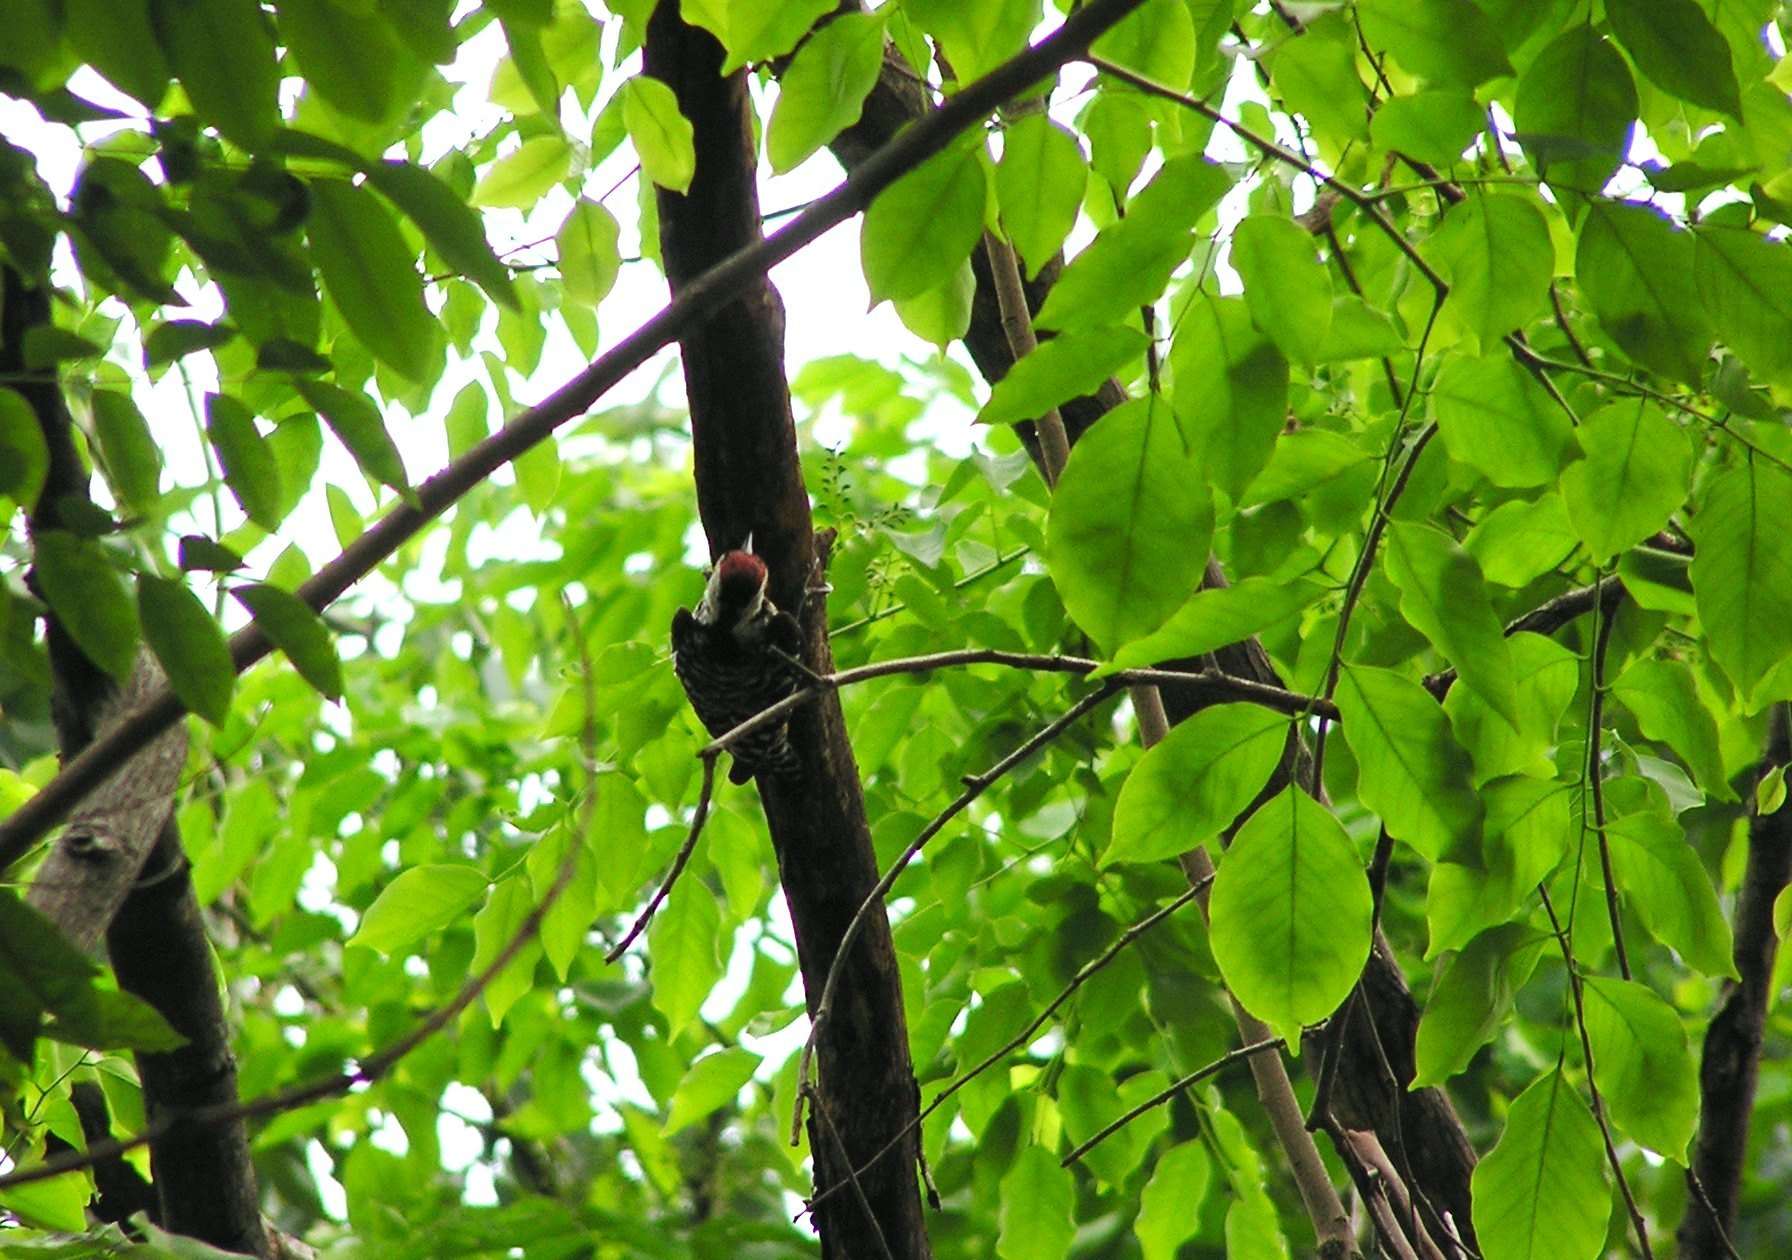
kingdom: Animalia
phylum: Chordata
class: Aves
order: Piciformes
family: Picidae
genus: Dendrocopos
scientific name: Dendrocopos analis
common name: Freckle-breasted woodpecker
